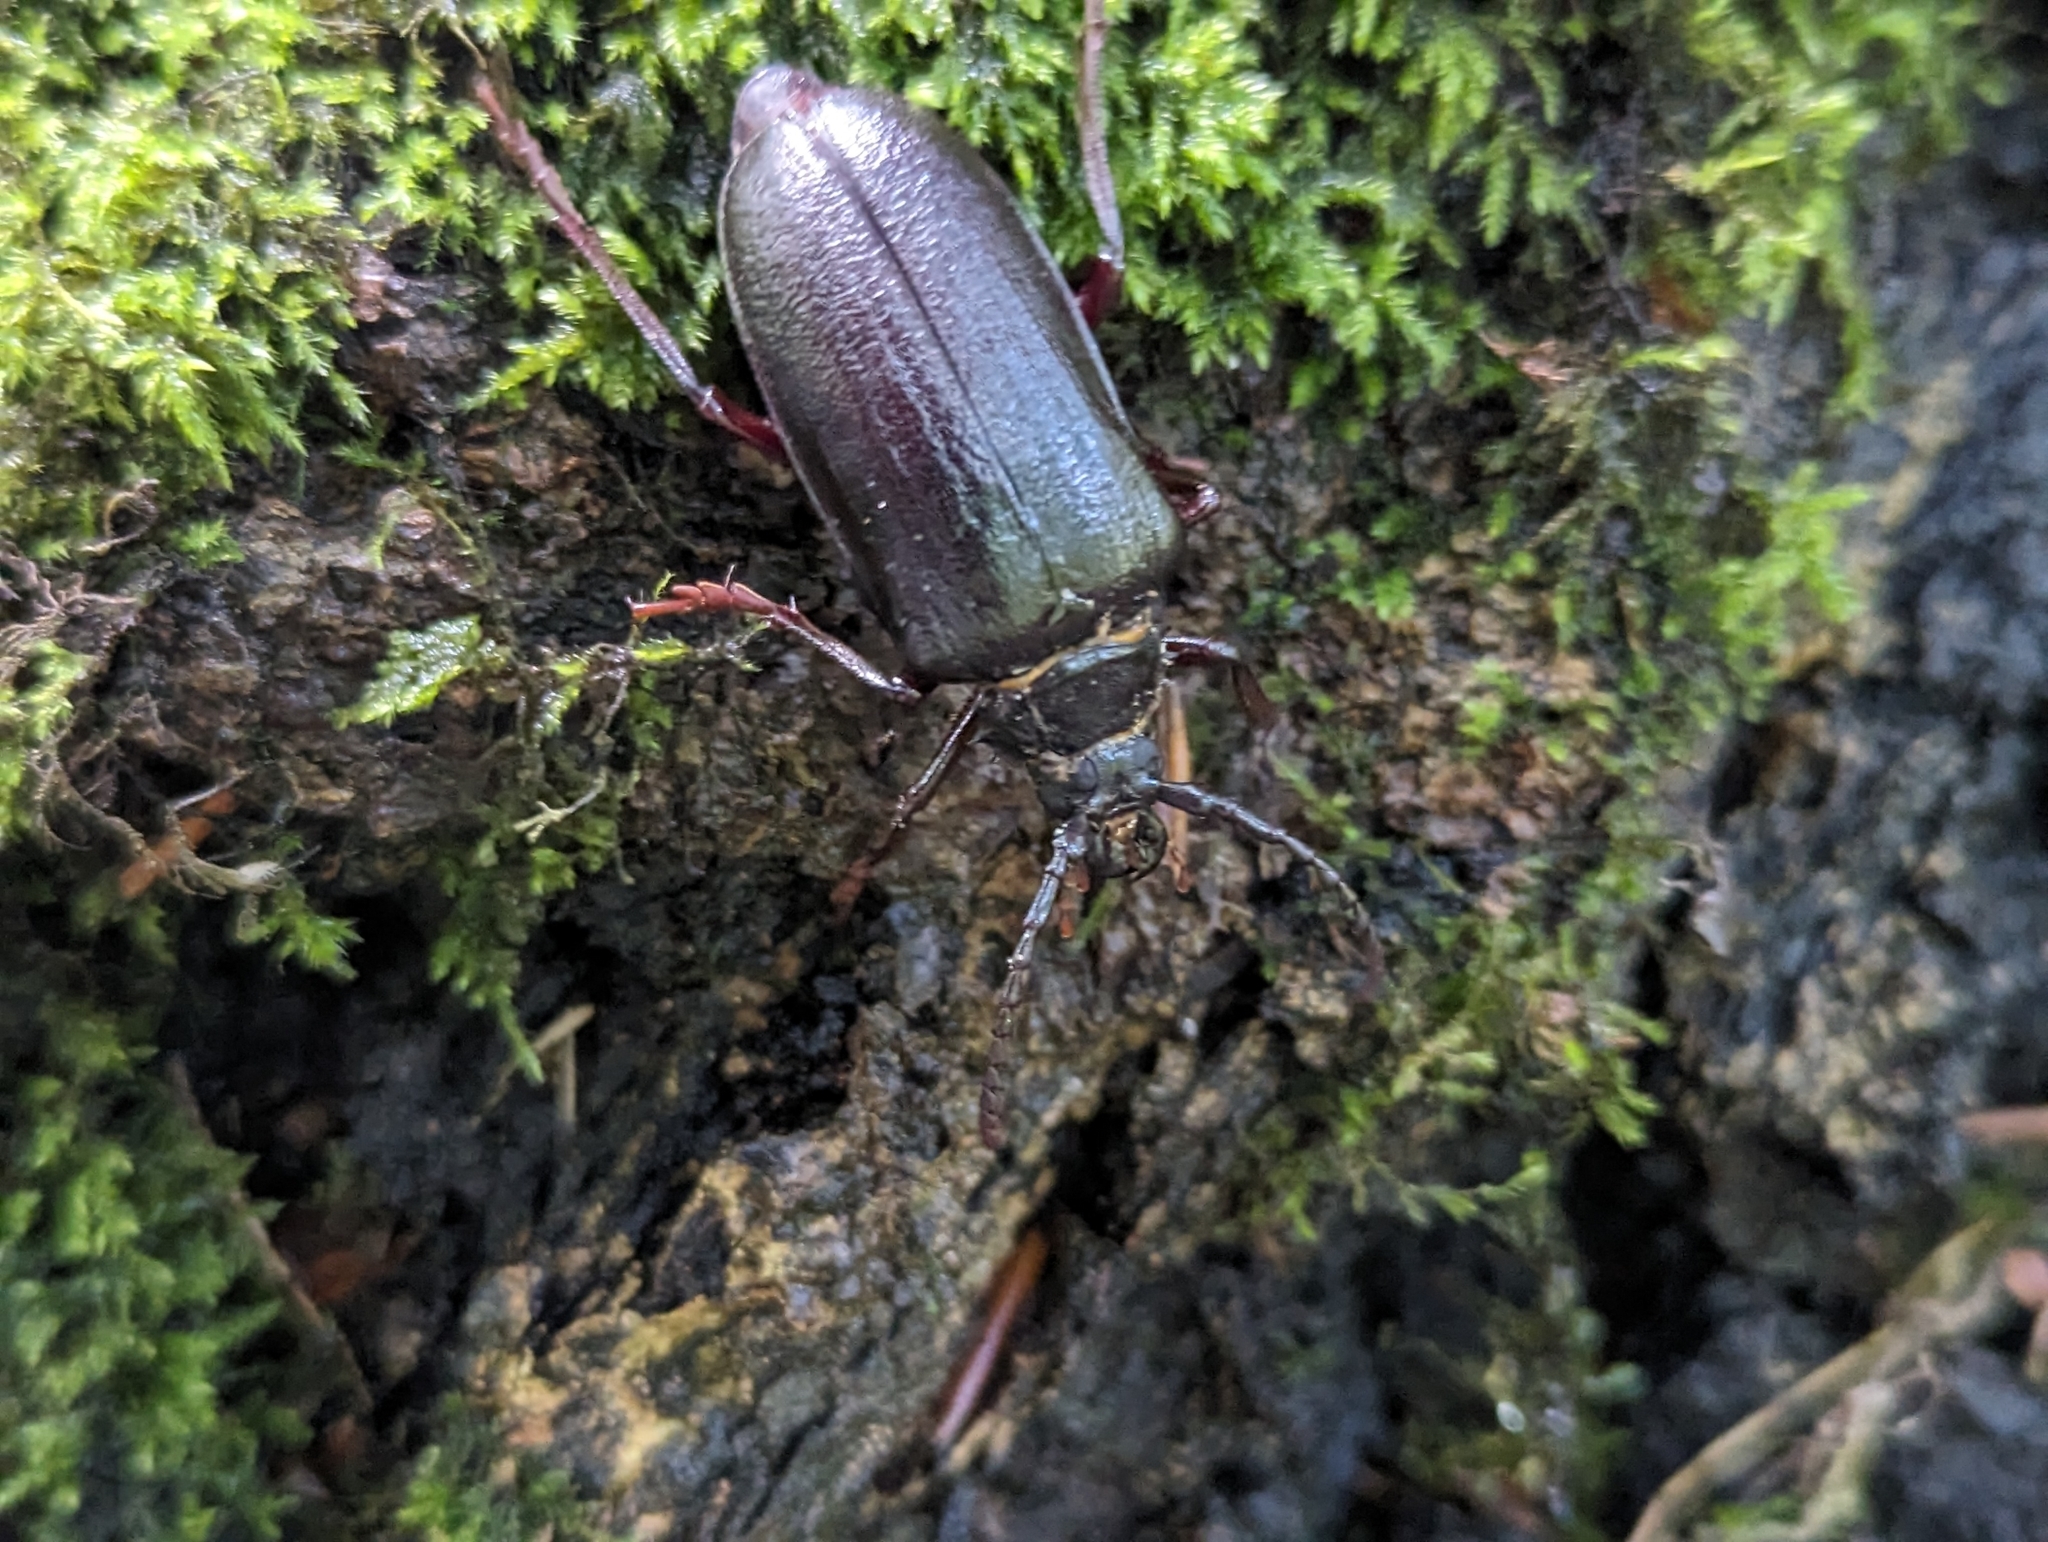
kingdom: Animalia
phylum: Arthropoda
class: Insecta
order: Coleoptera
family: Cerambycidae
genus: Prionus
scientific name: Prionus coriarius
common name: Tanner beetle
